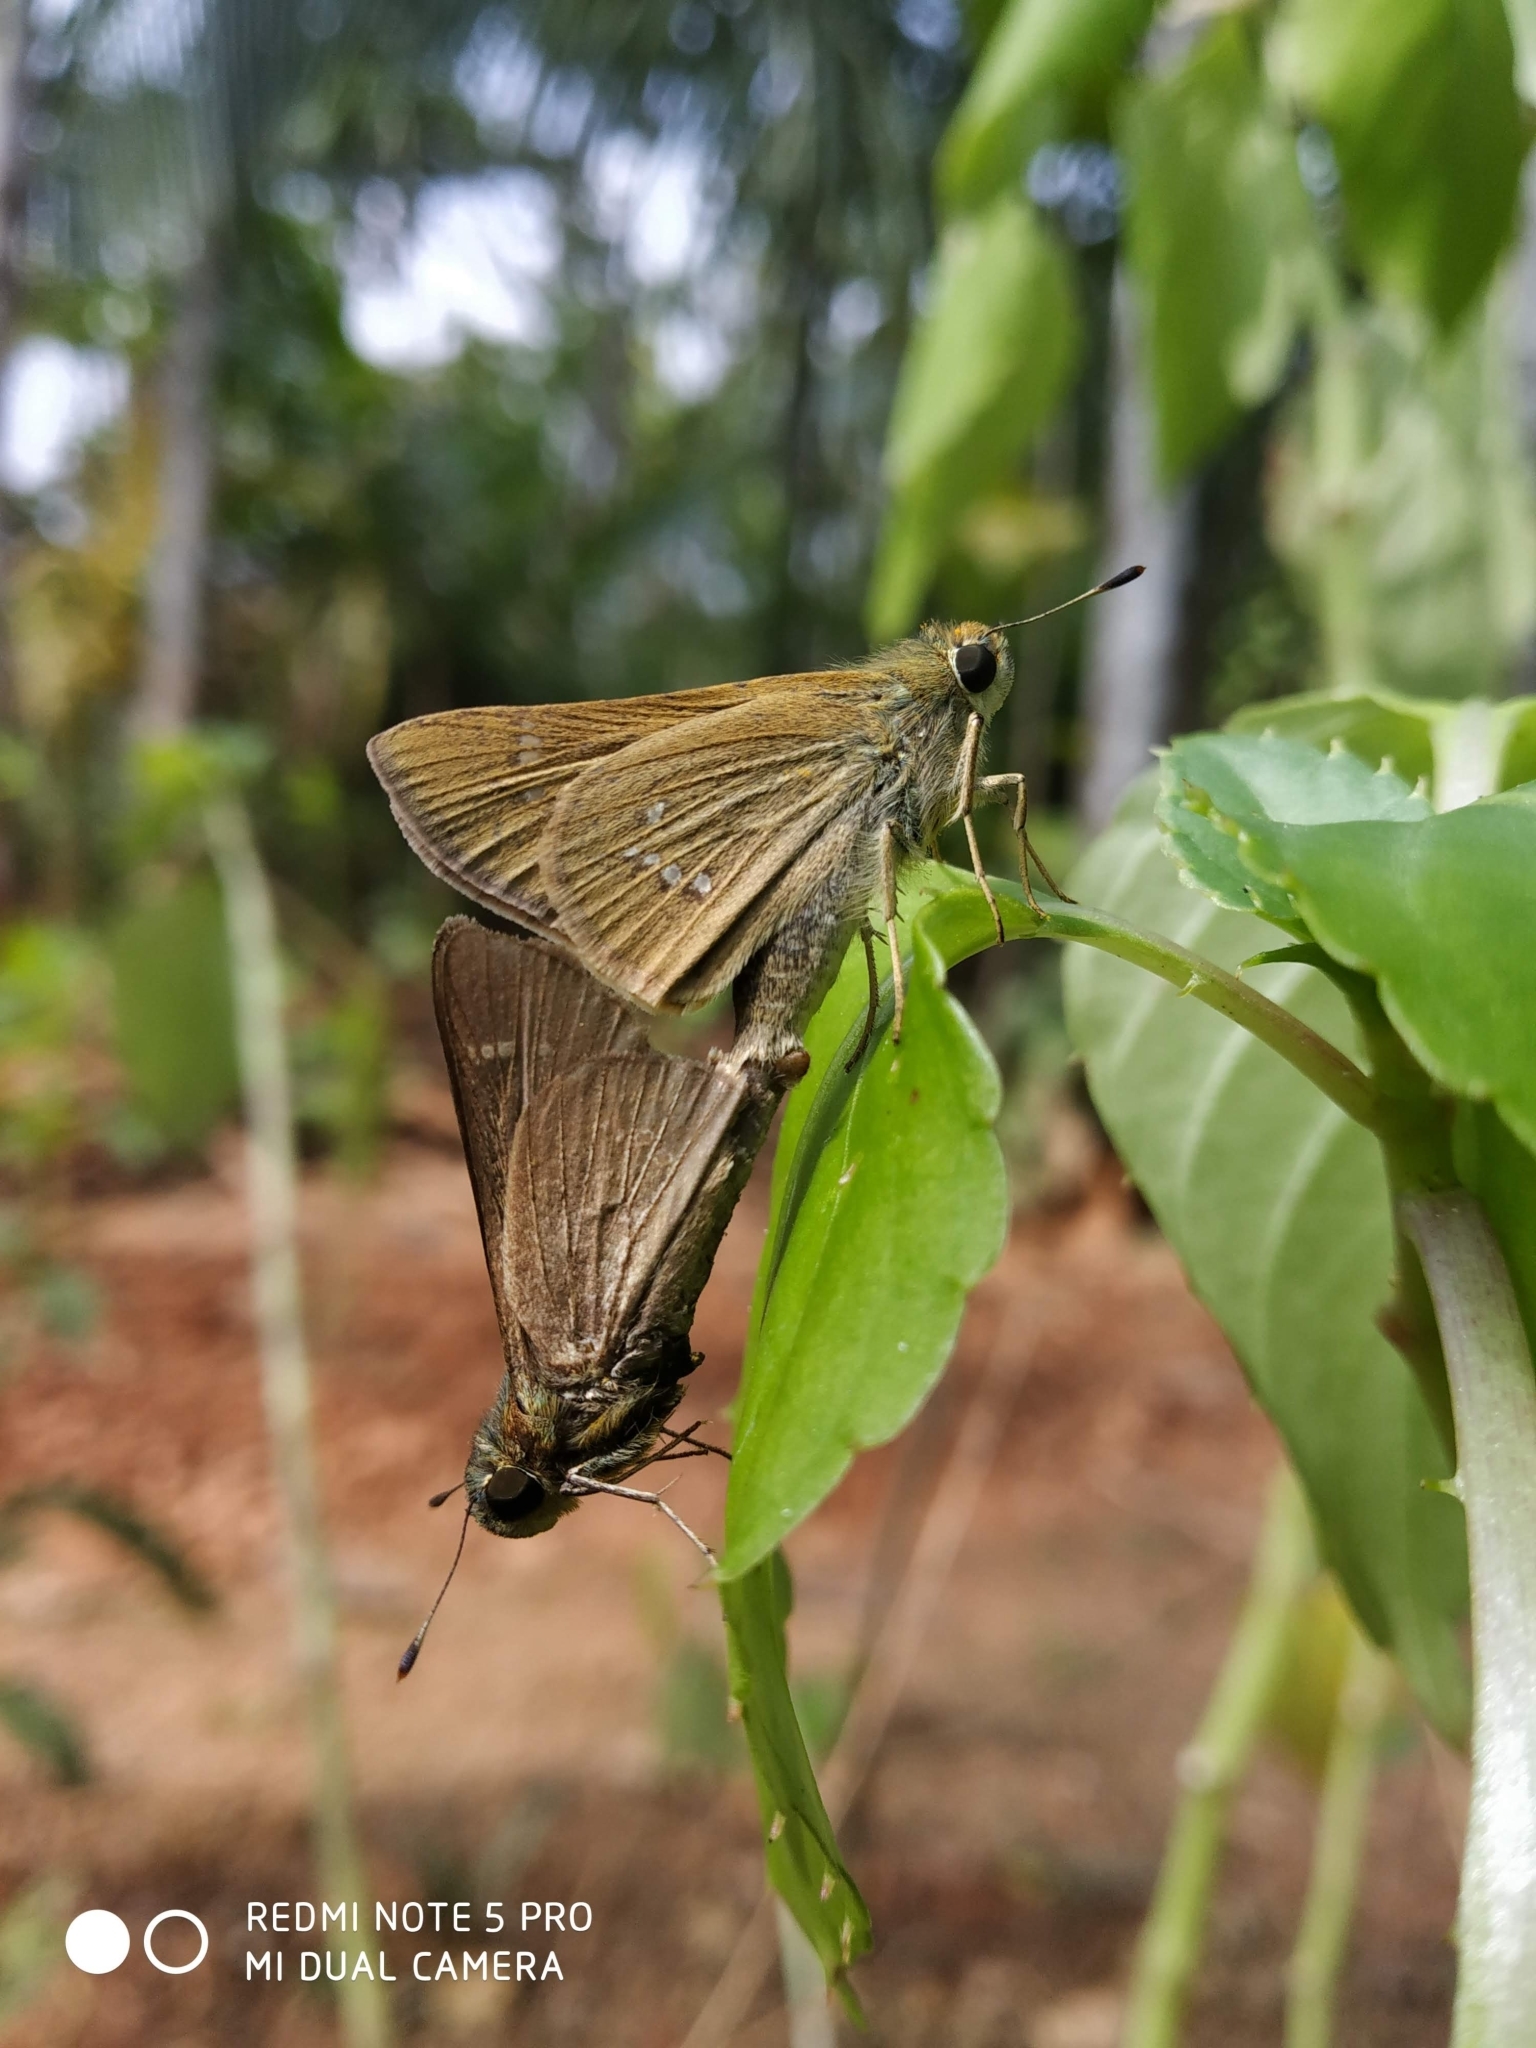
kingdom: Animalia
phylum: Arthropoda
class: Insecta
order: Lepidoptera
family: Hesperiidae
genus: Borbo
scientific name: Borbo cinnara
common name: Formosan swift
